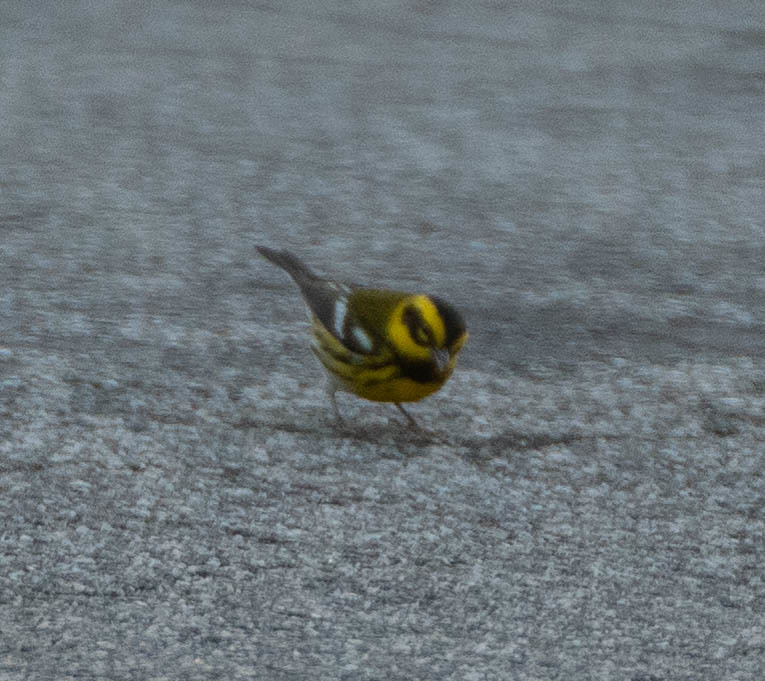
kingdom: Animalia
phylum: Chordata
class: Aves
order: Passeriformes
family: Parulidae
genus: Setophaga
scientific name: Setophaga townsendi
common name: Townsend's warbler
